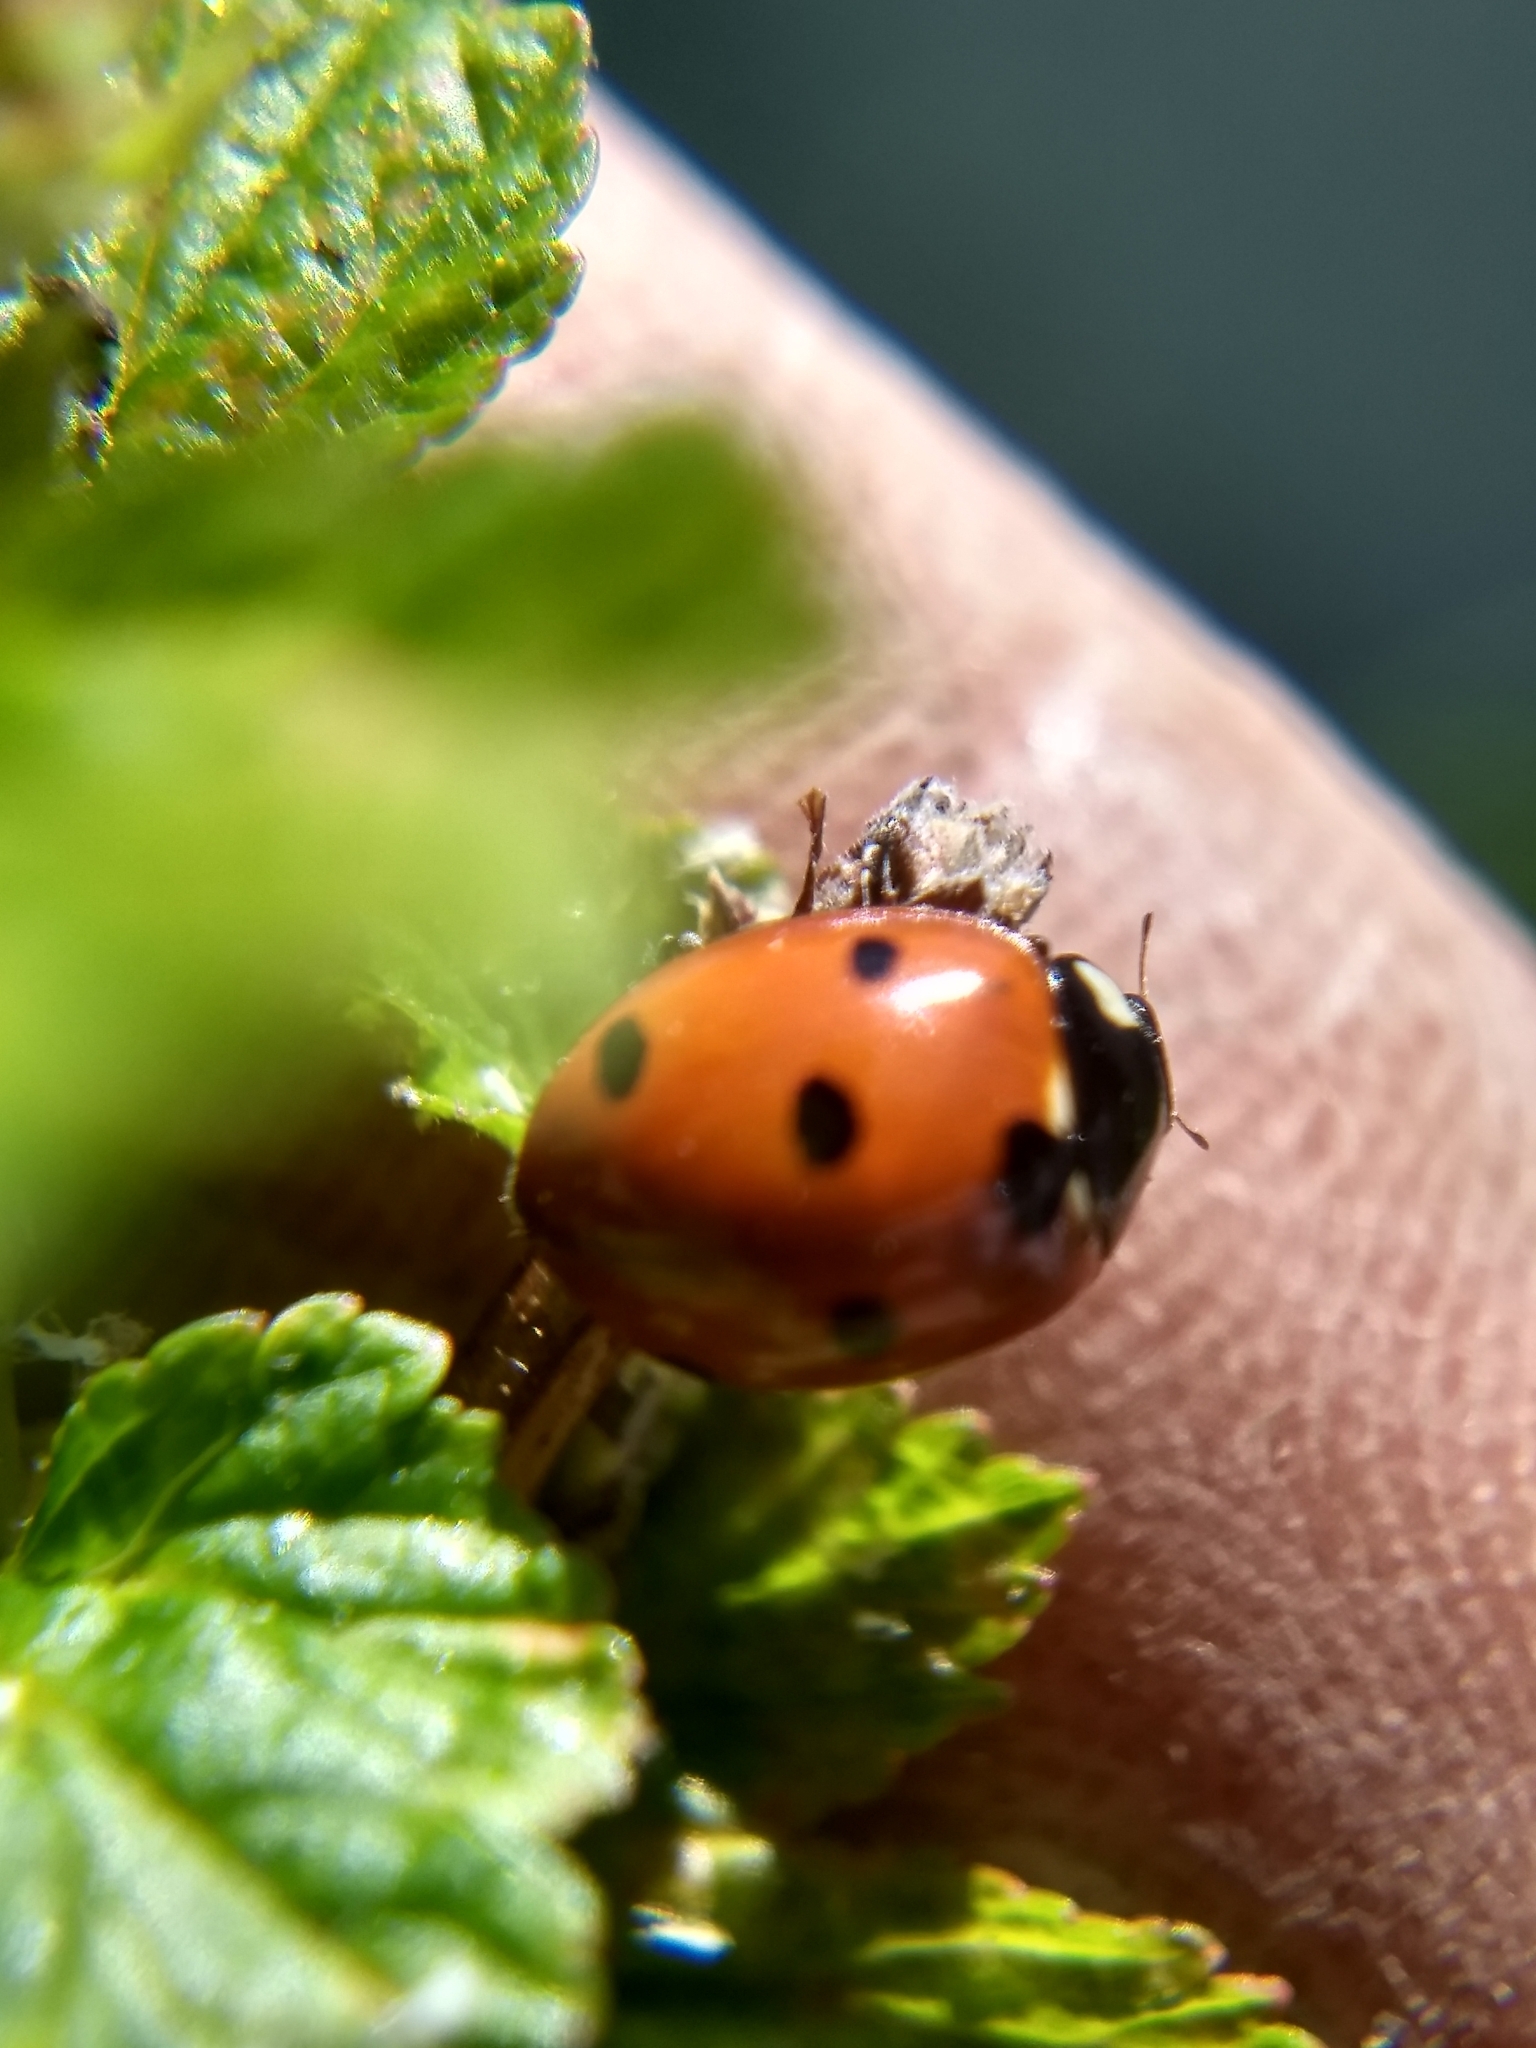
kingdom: Animalia
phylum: Arthropoda
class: Insecta
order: Coleoptera
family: Coccinellidae
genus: Coccinella
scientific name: Coccinella septempunctata
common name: Sevenspotted lady beetle
